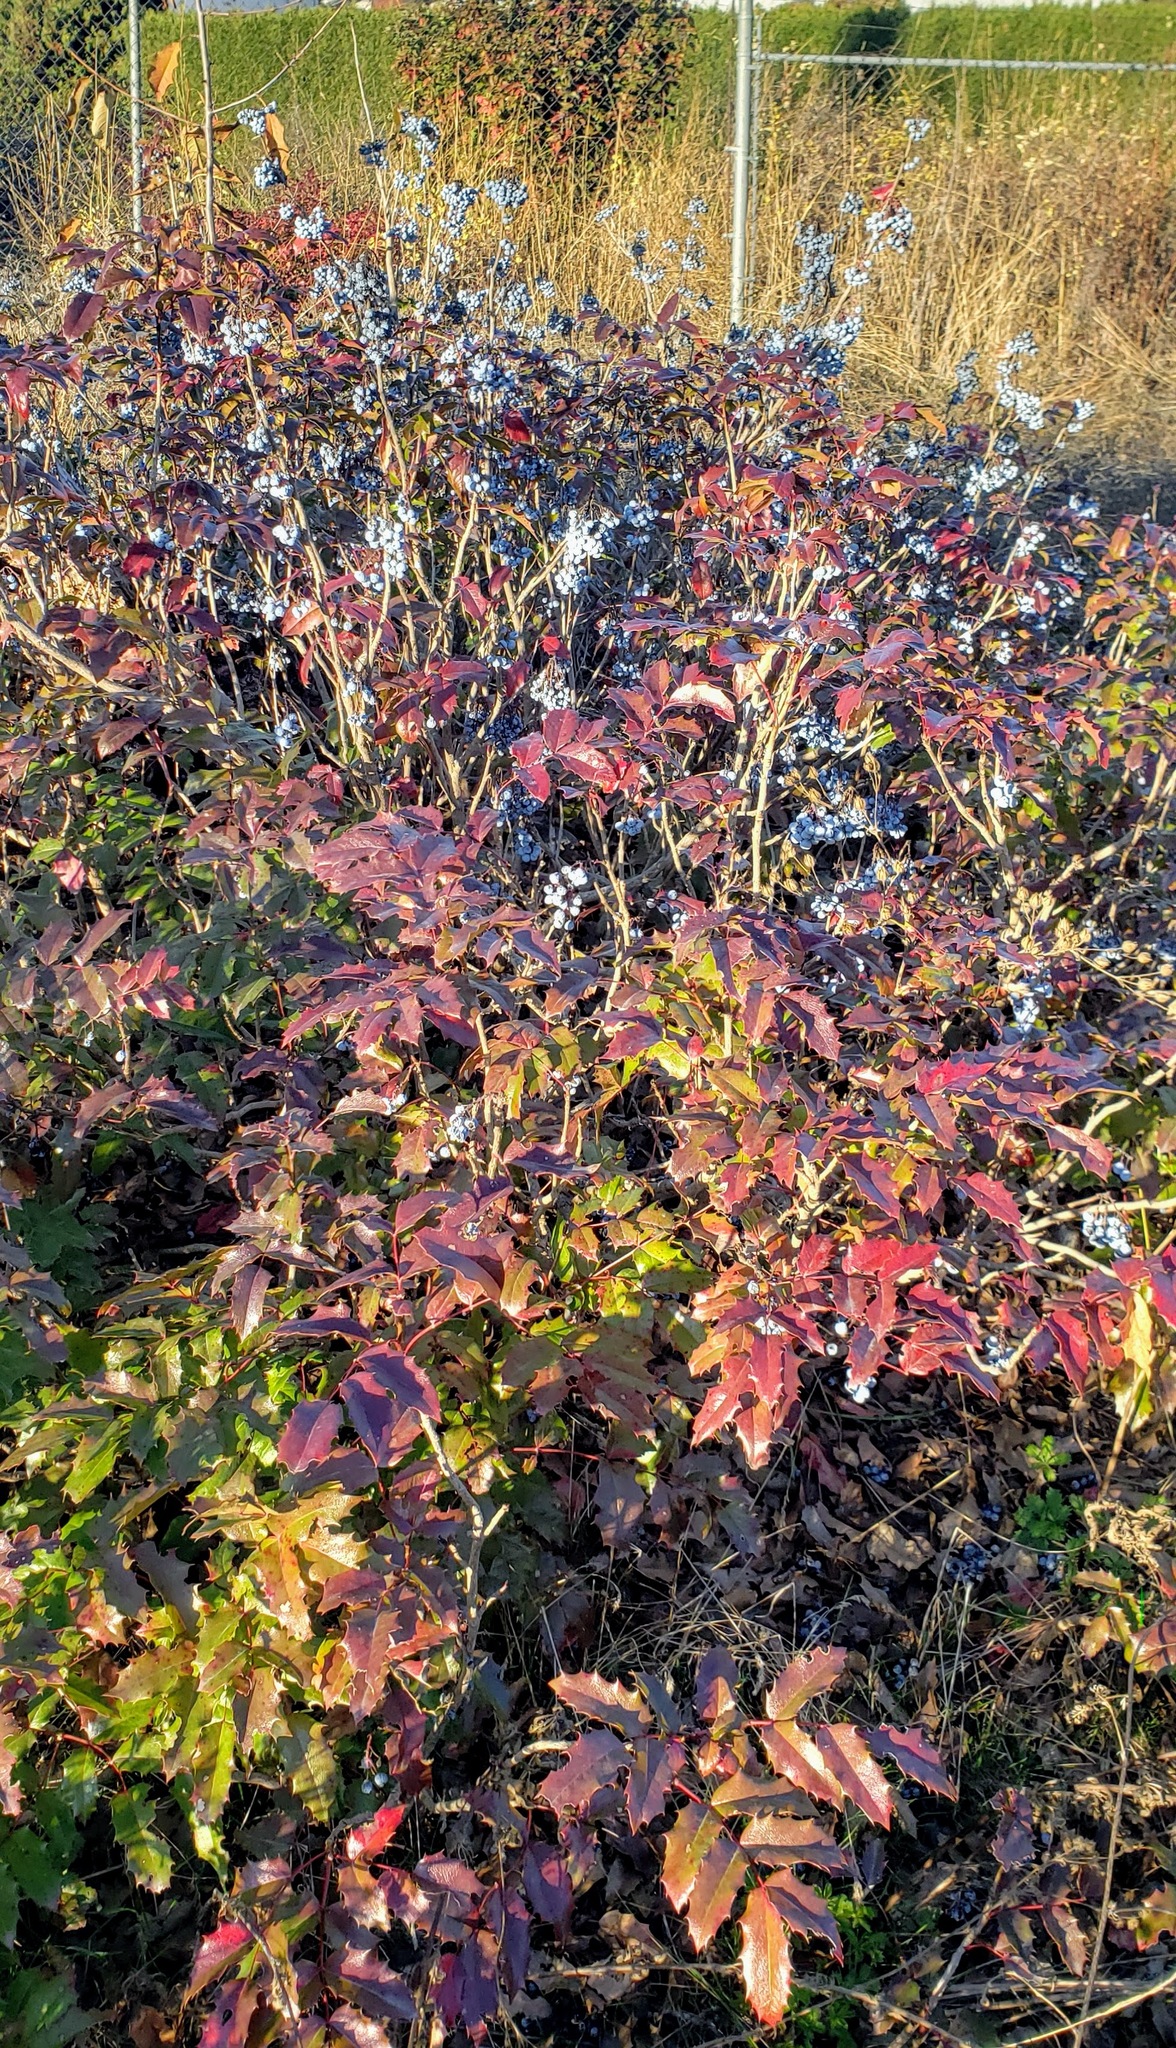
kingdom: Plantae
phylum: Tracheophyta
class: Magnoliopsida
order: Ranunculales
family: Berberidaceae
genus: Mahonia
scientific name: Mahonia aquifolium
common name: Oregon-grape
